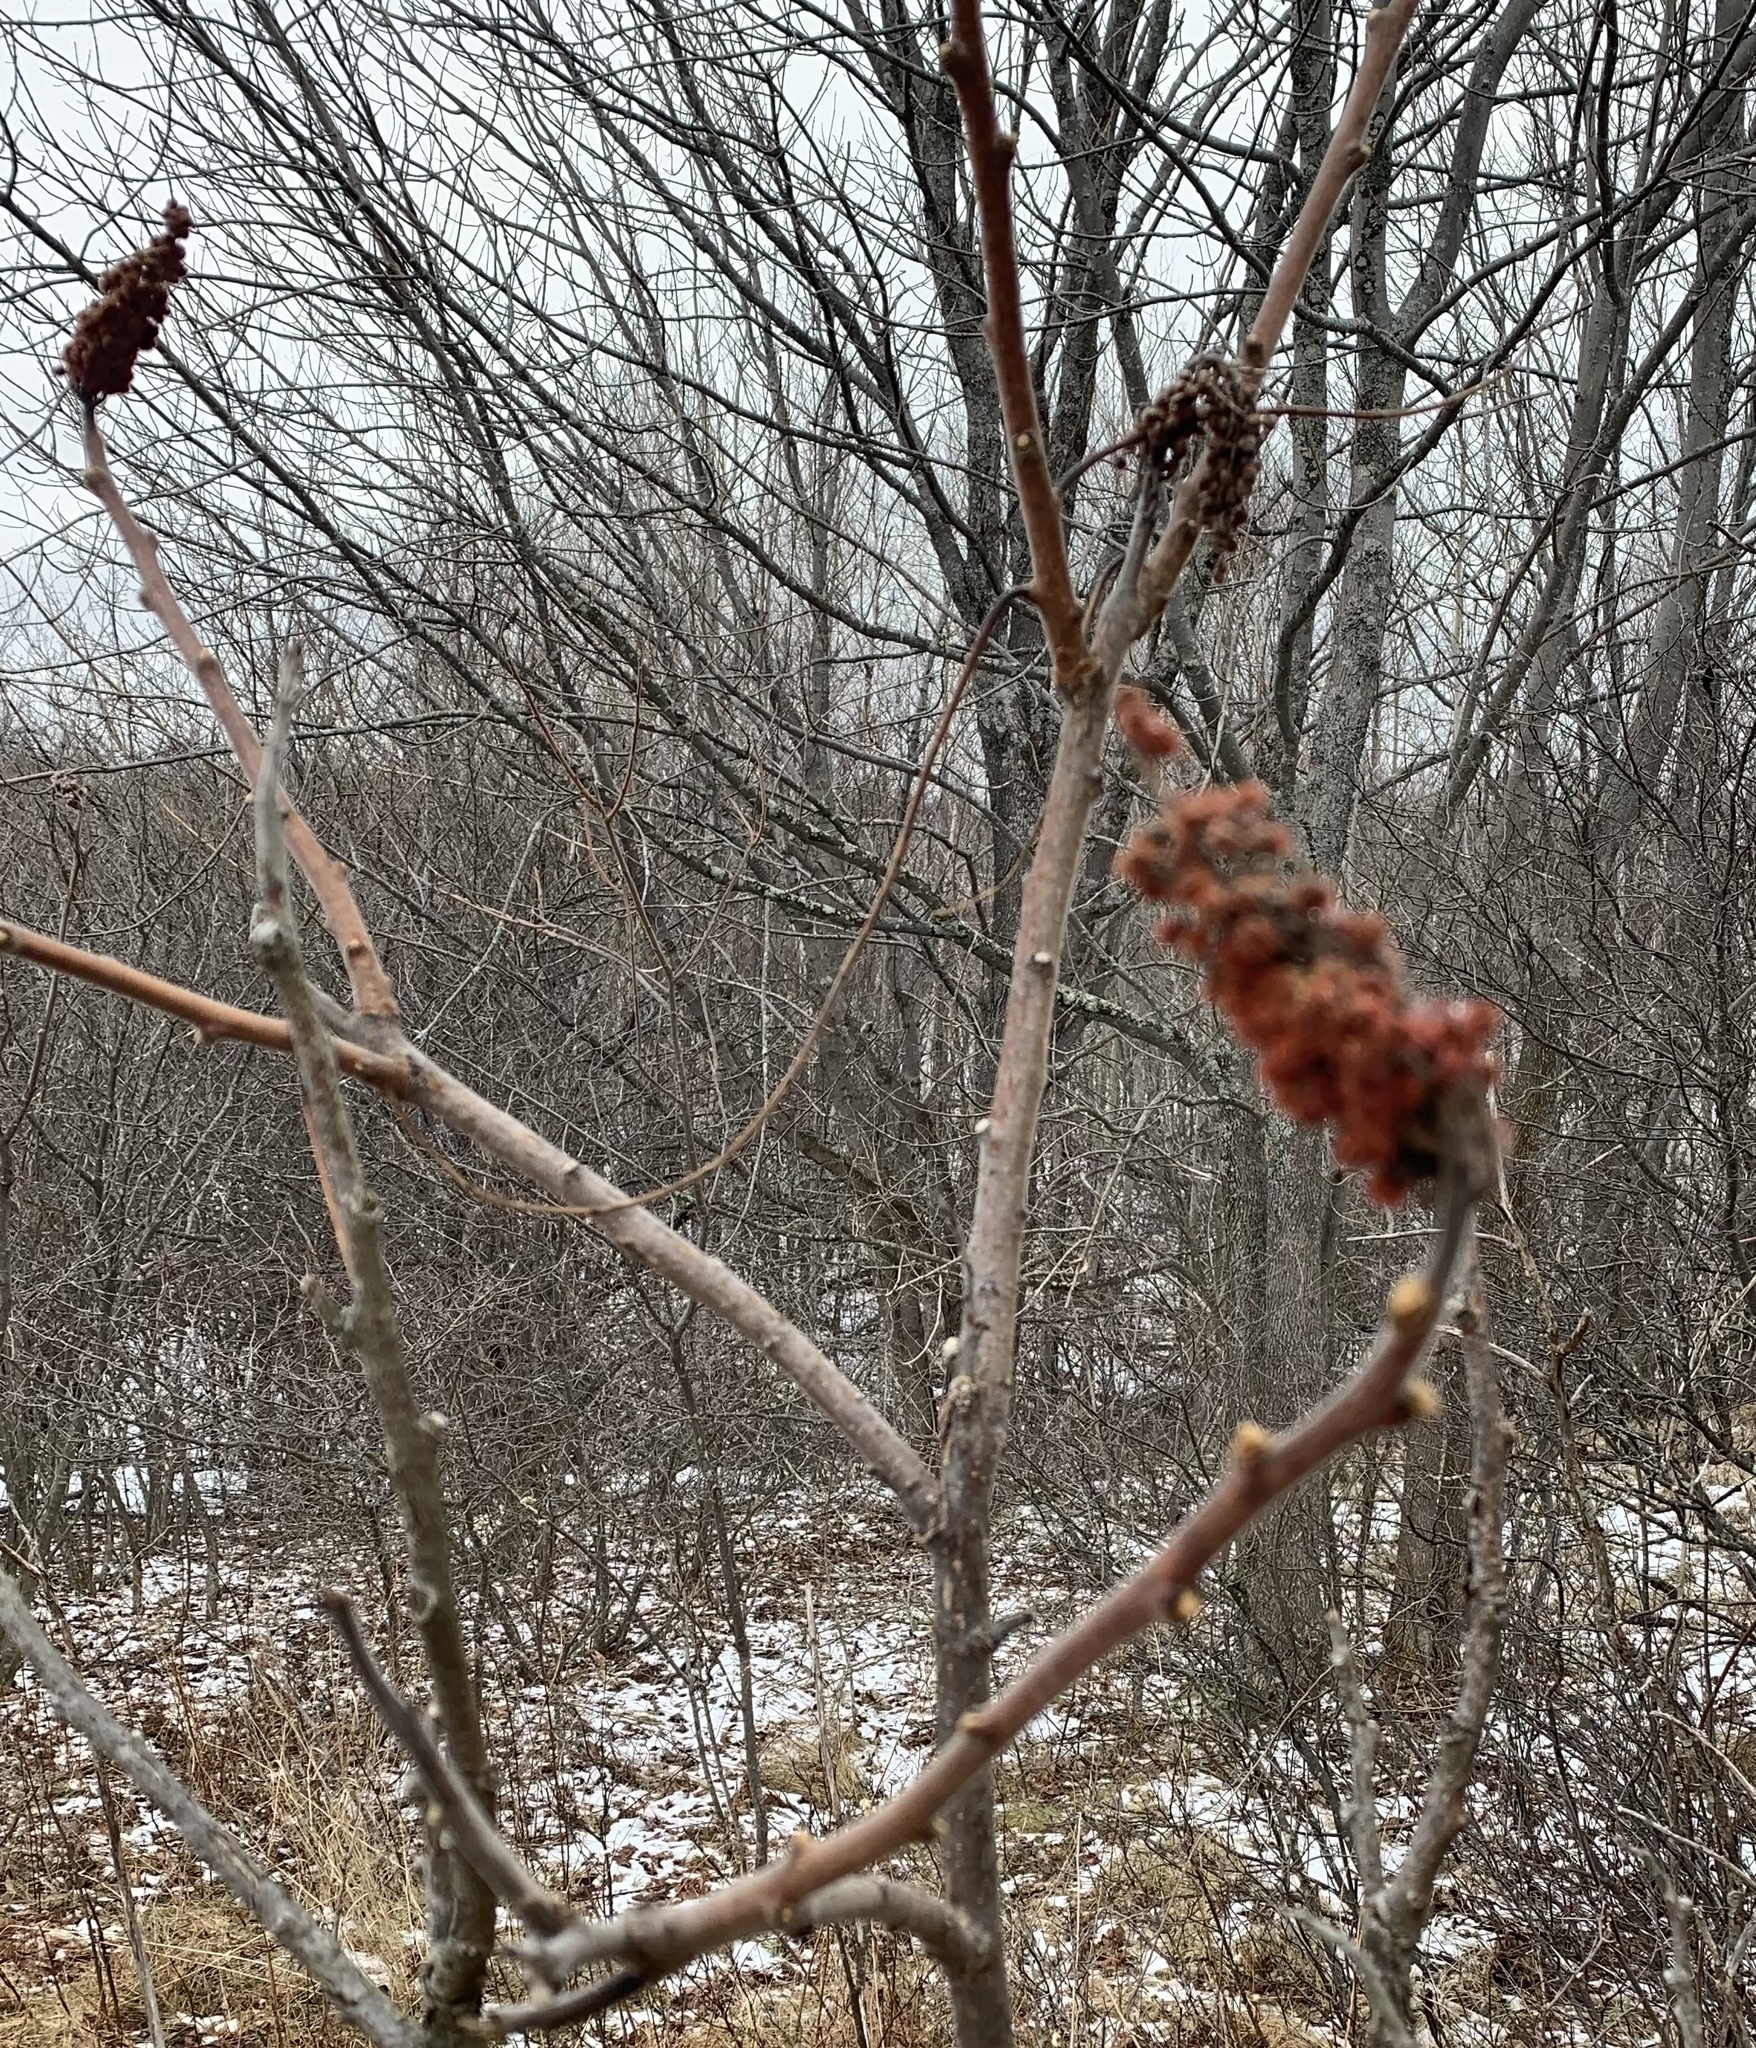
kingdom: Plantae
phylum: Tracheophyta
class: Magnoliopsida
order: Sapindales
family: Anacardiaceae
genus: Rhus
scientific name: Rhus typhina
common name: Staghorn sumac
